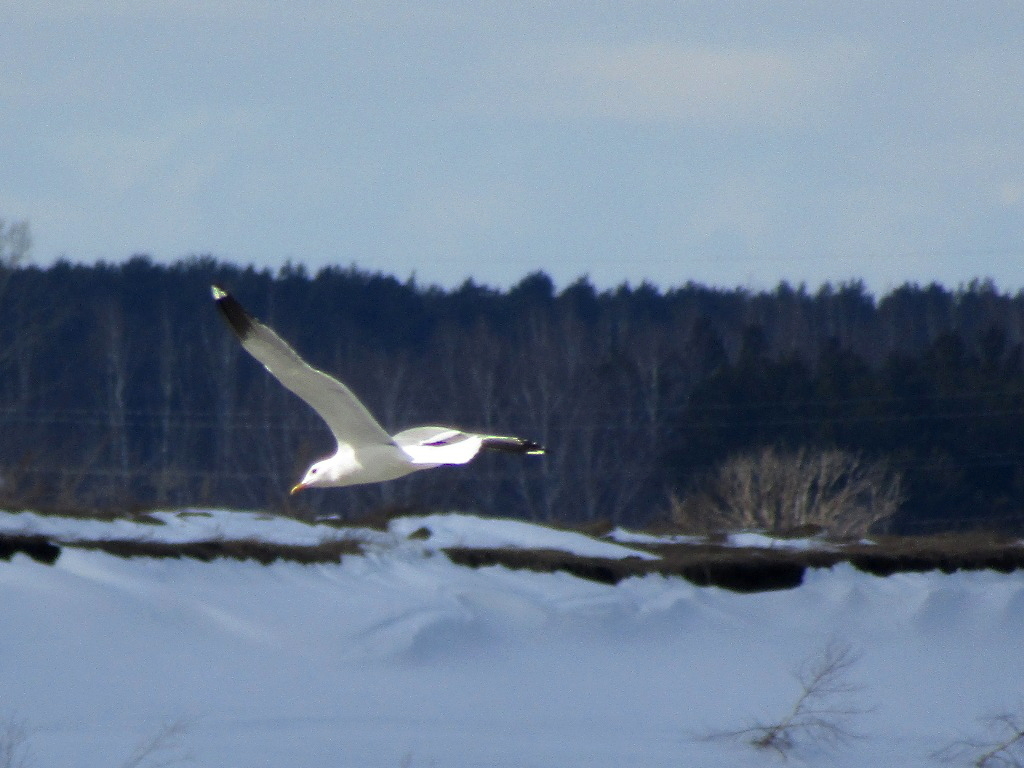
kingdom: Animalia
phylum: Chordata
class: Aves
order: Charadriiformes
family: Laridae
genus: Larus
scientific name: Larus canus
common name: Mew gull
